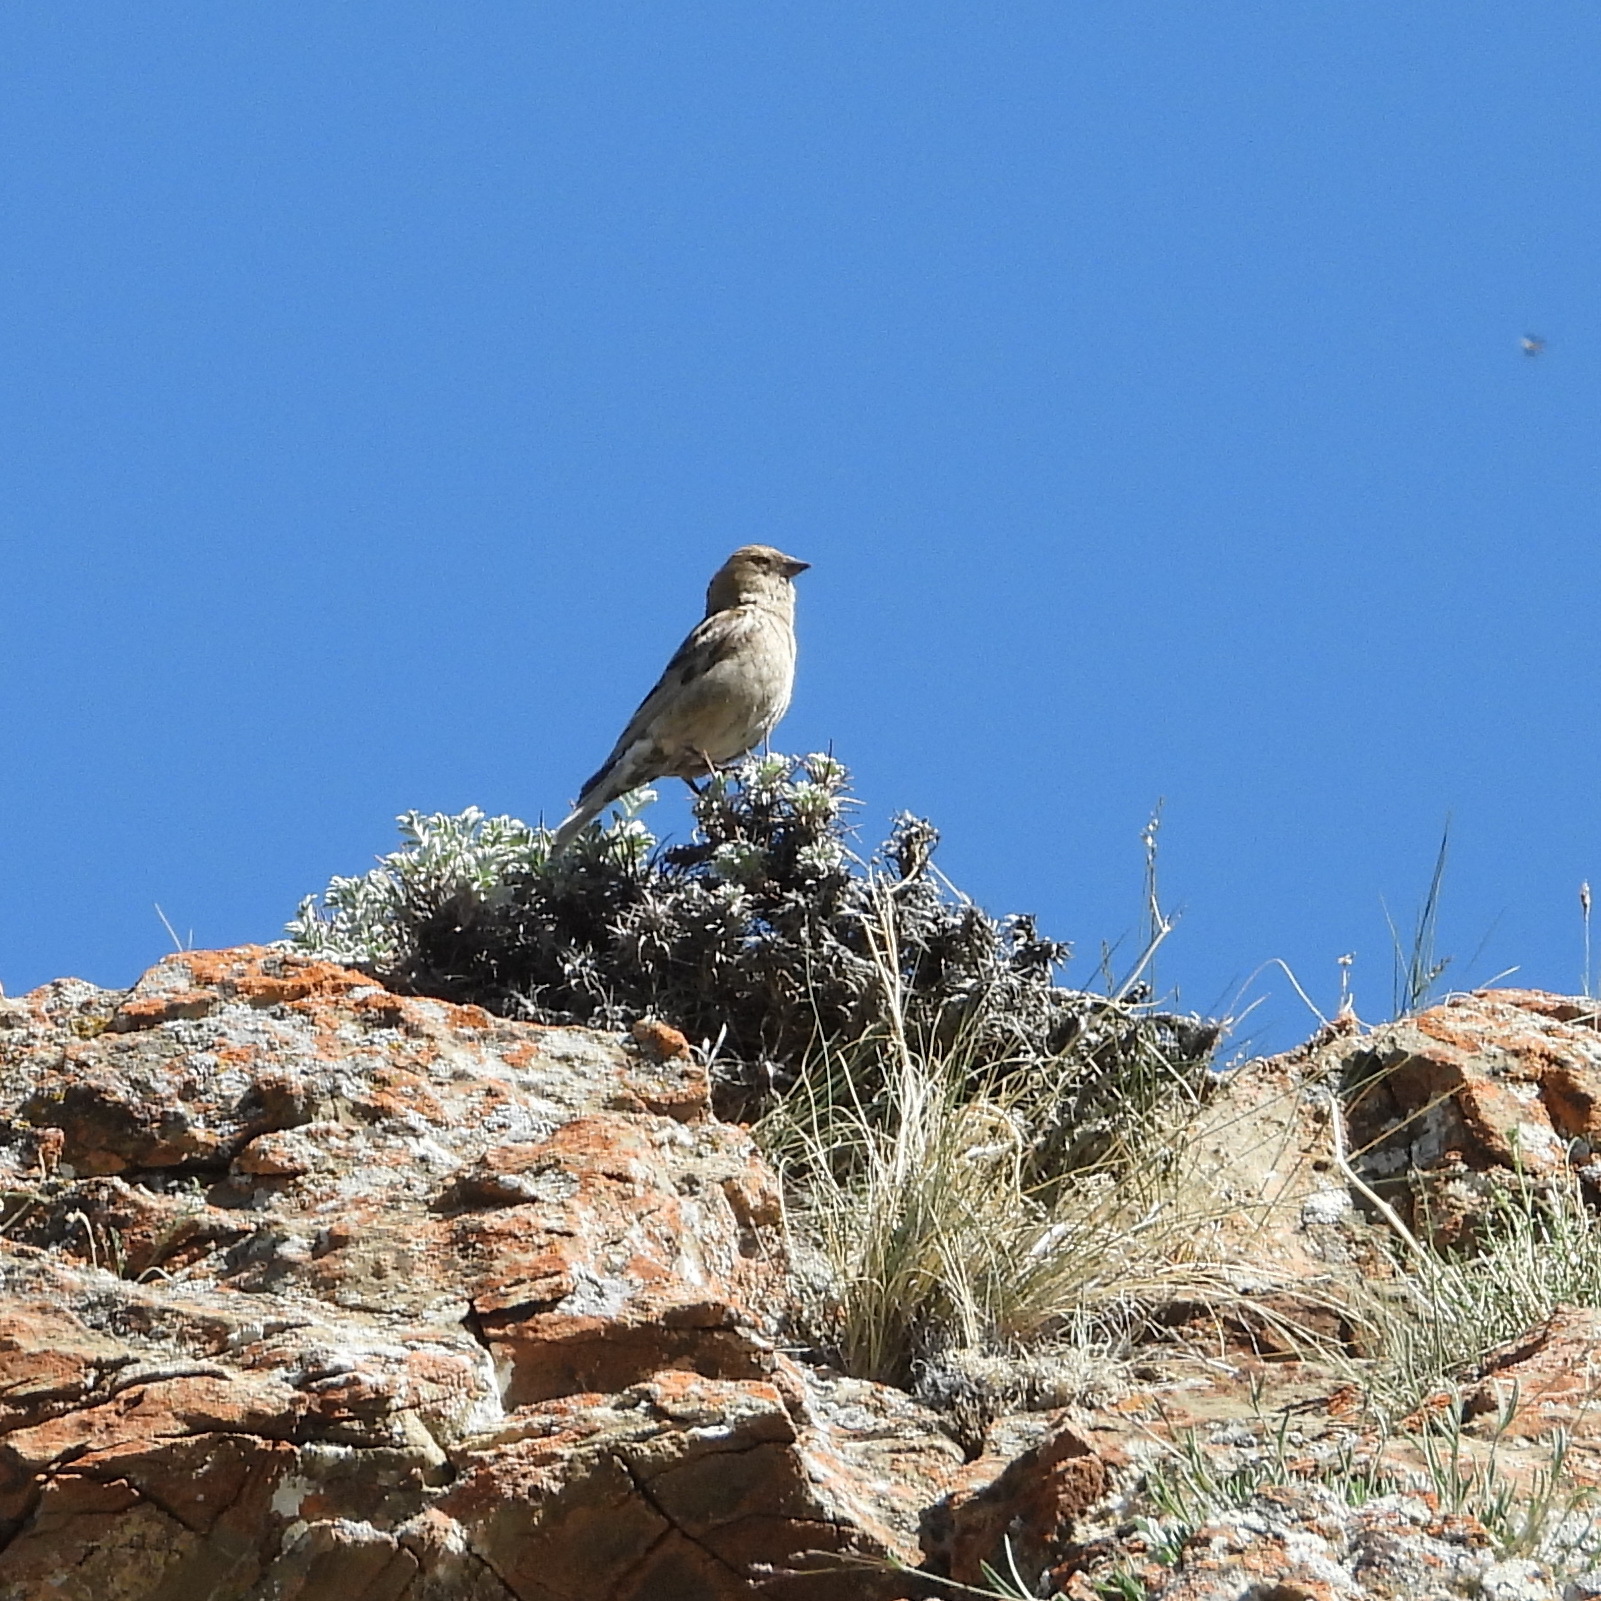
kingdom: Animalia
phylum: Chordata
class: Aves
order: Passeriformes
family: Fringillidae
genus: Leucosticte
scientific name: Leucosticte nemoricola
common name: Plain mountain finch
